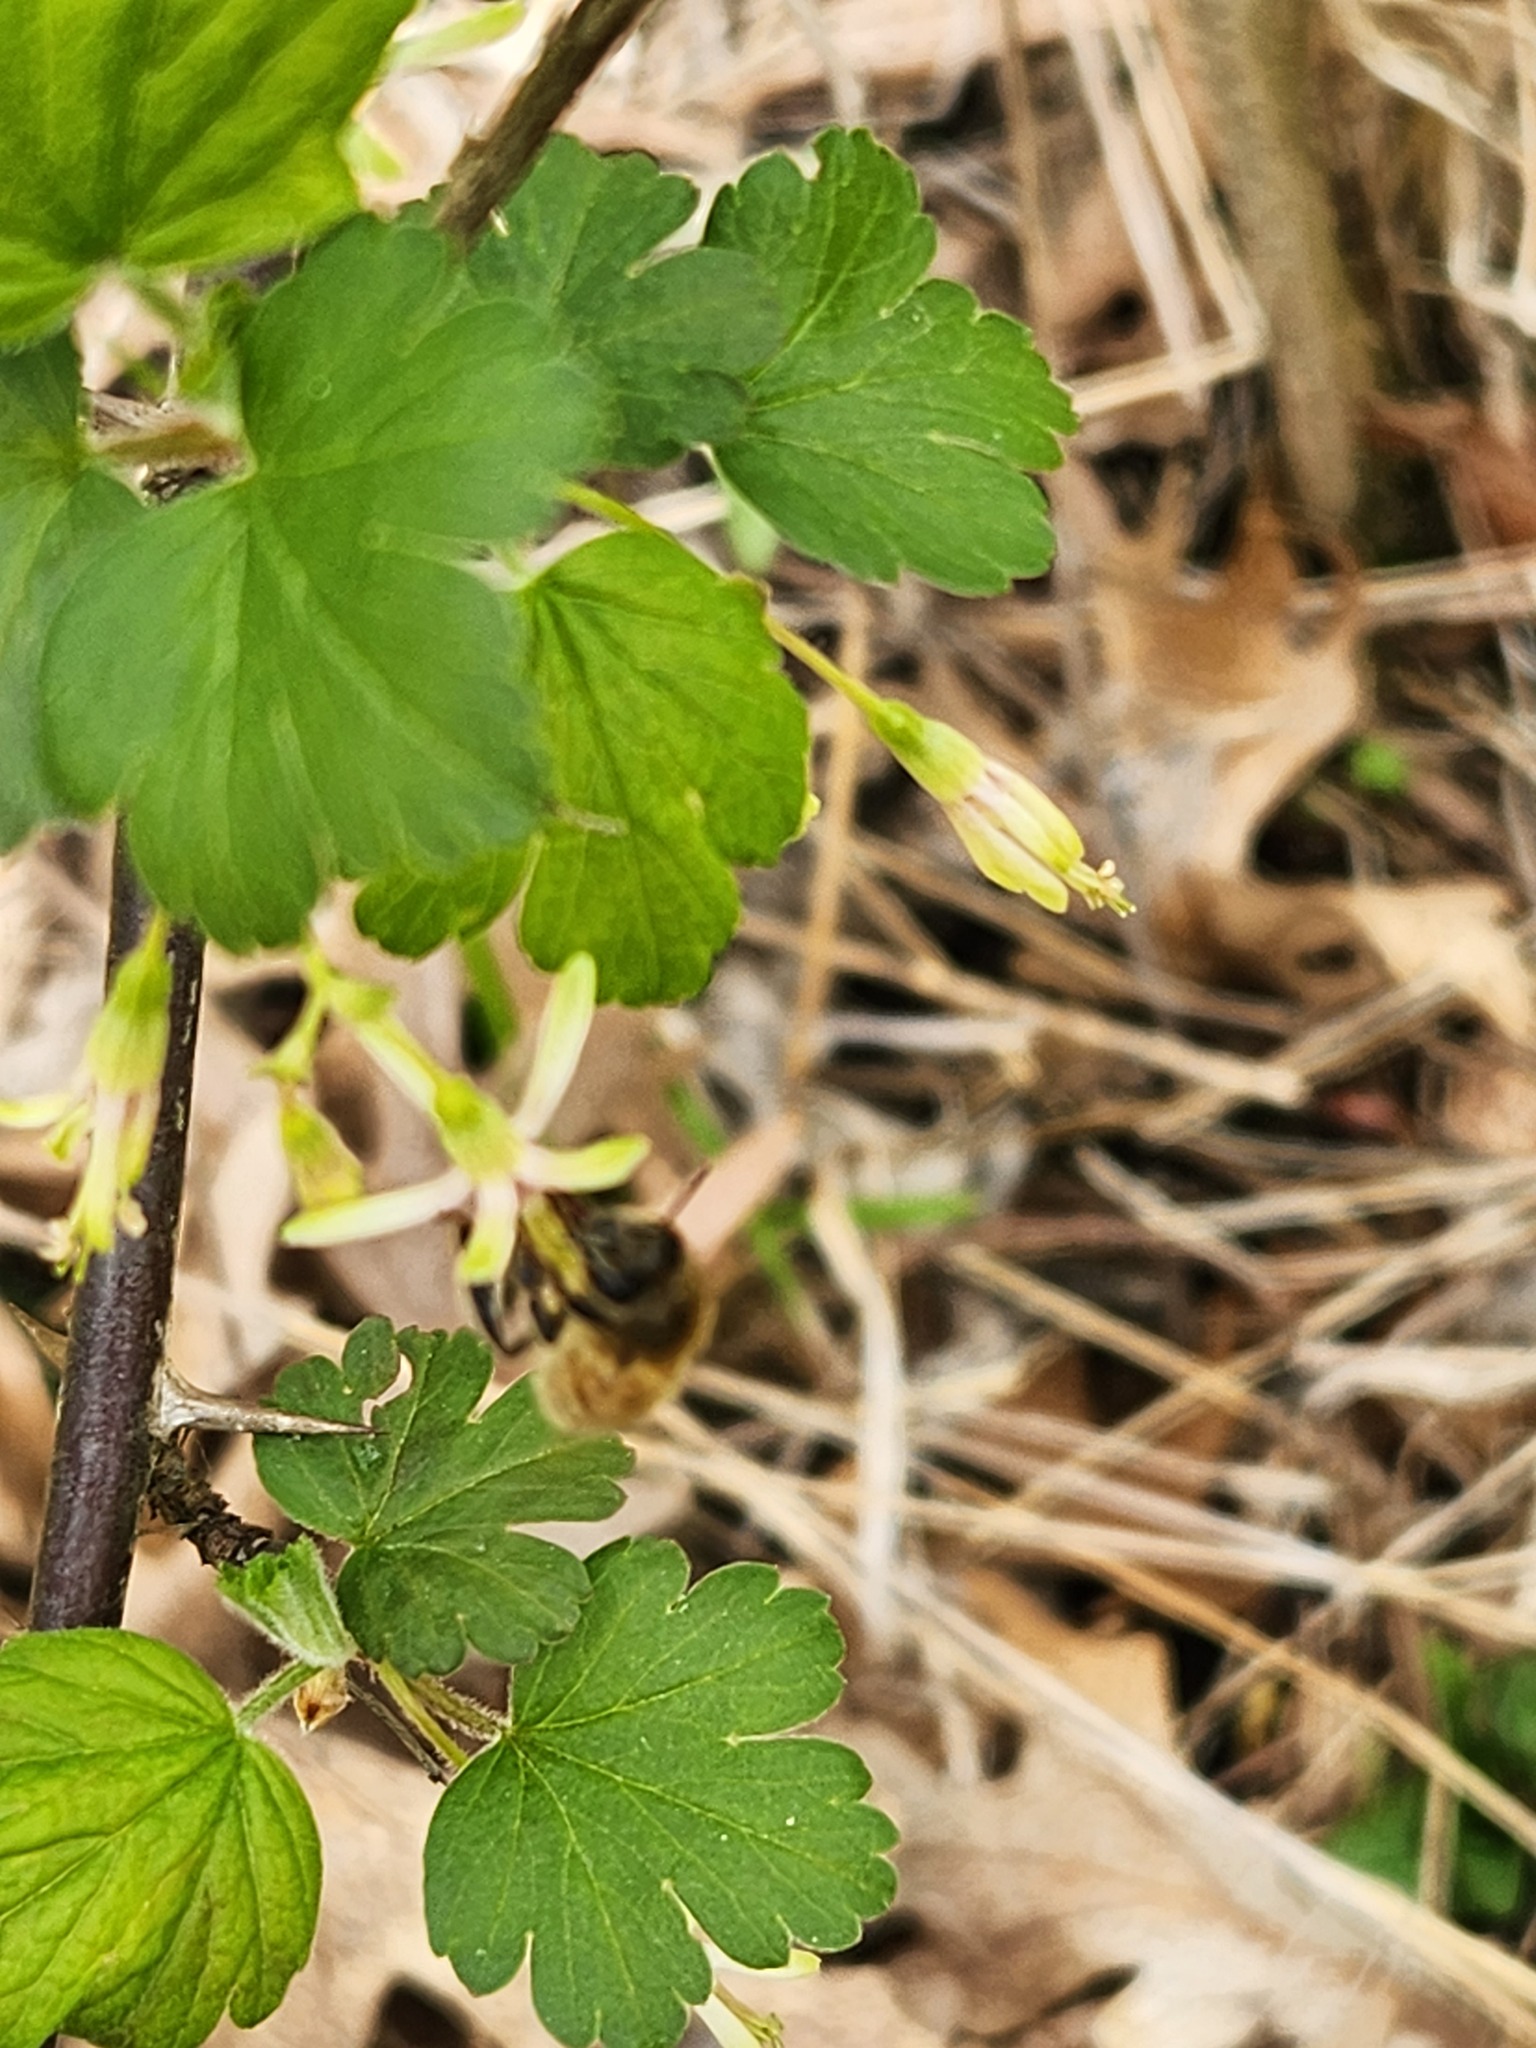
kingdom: Animalia
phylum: Arthropoda
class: Insecta
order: Hymenoptera
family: Apidae
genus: Apis
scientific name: Apis mellifera
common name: Honey bee
